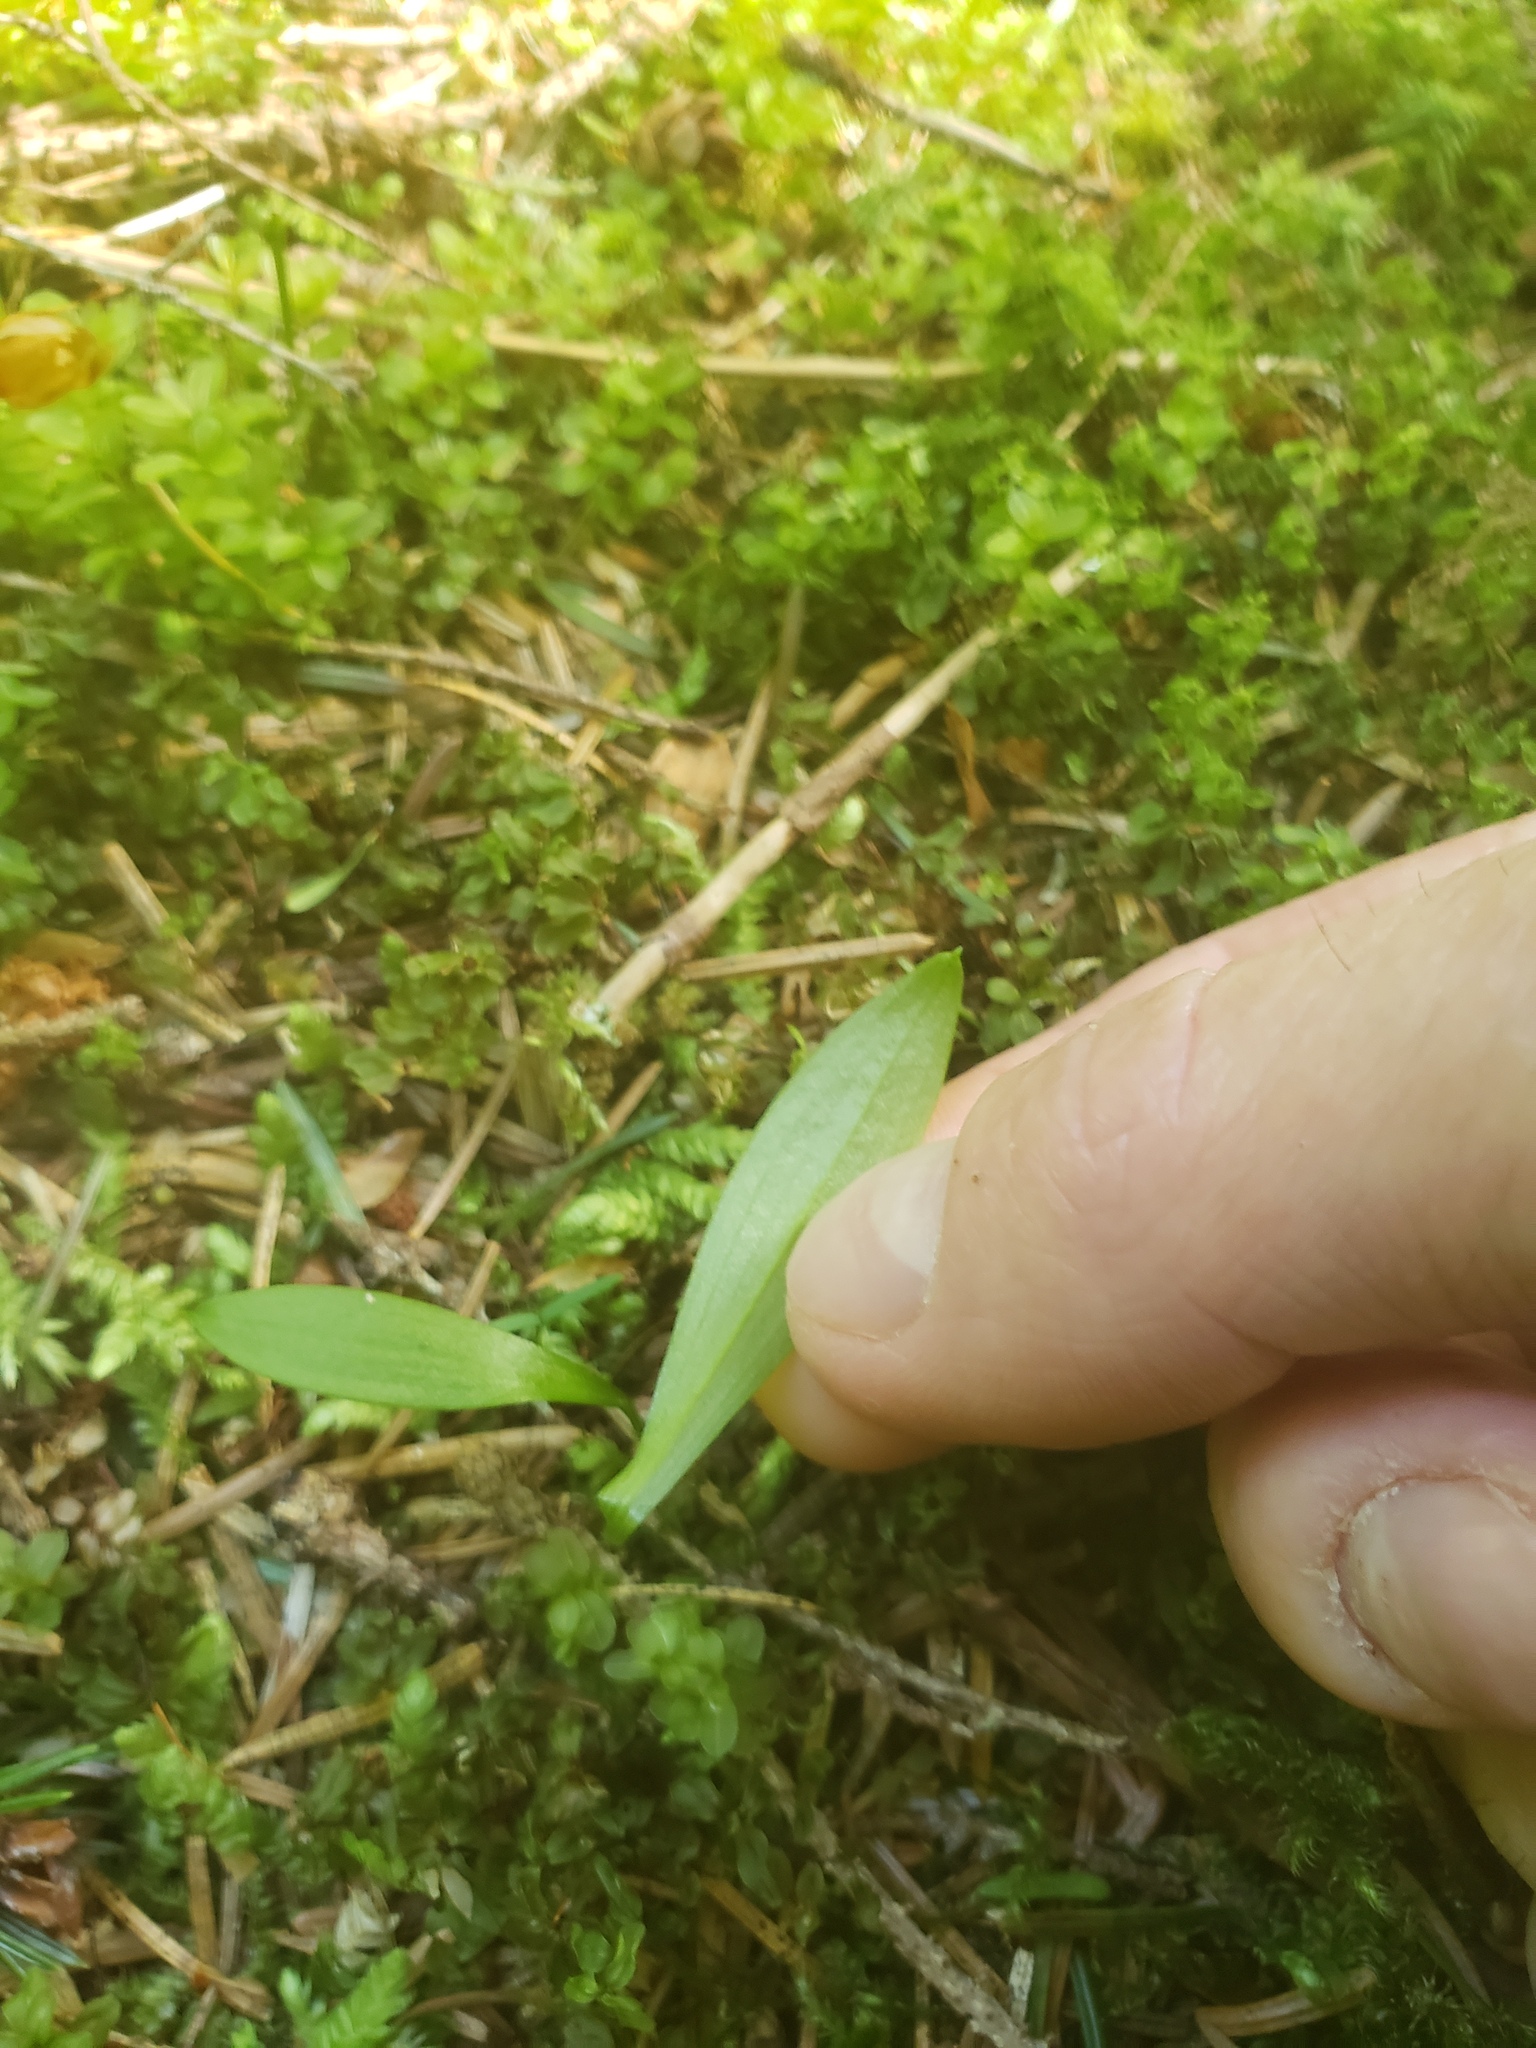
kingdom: Plantae
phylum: Tracheophyta
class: Liliopsida
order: Liliales
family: Liliaceae
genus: Clintonia
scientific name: Clintonia uniflora
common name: Queen's cup
